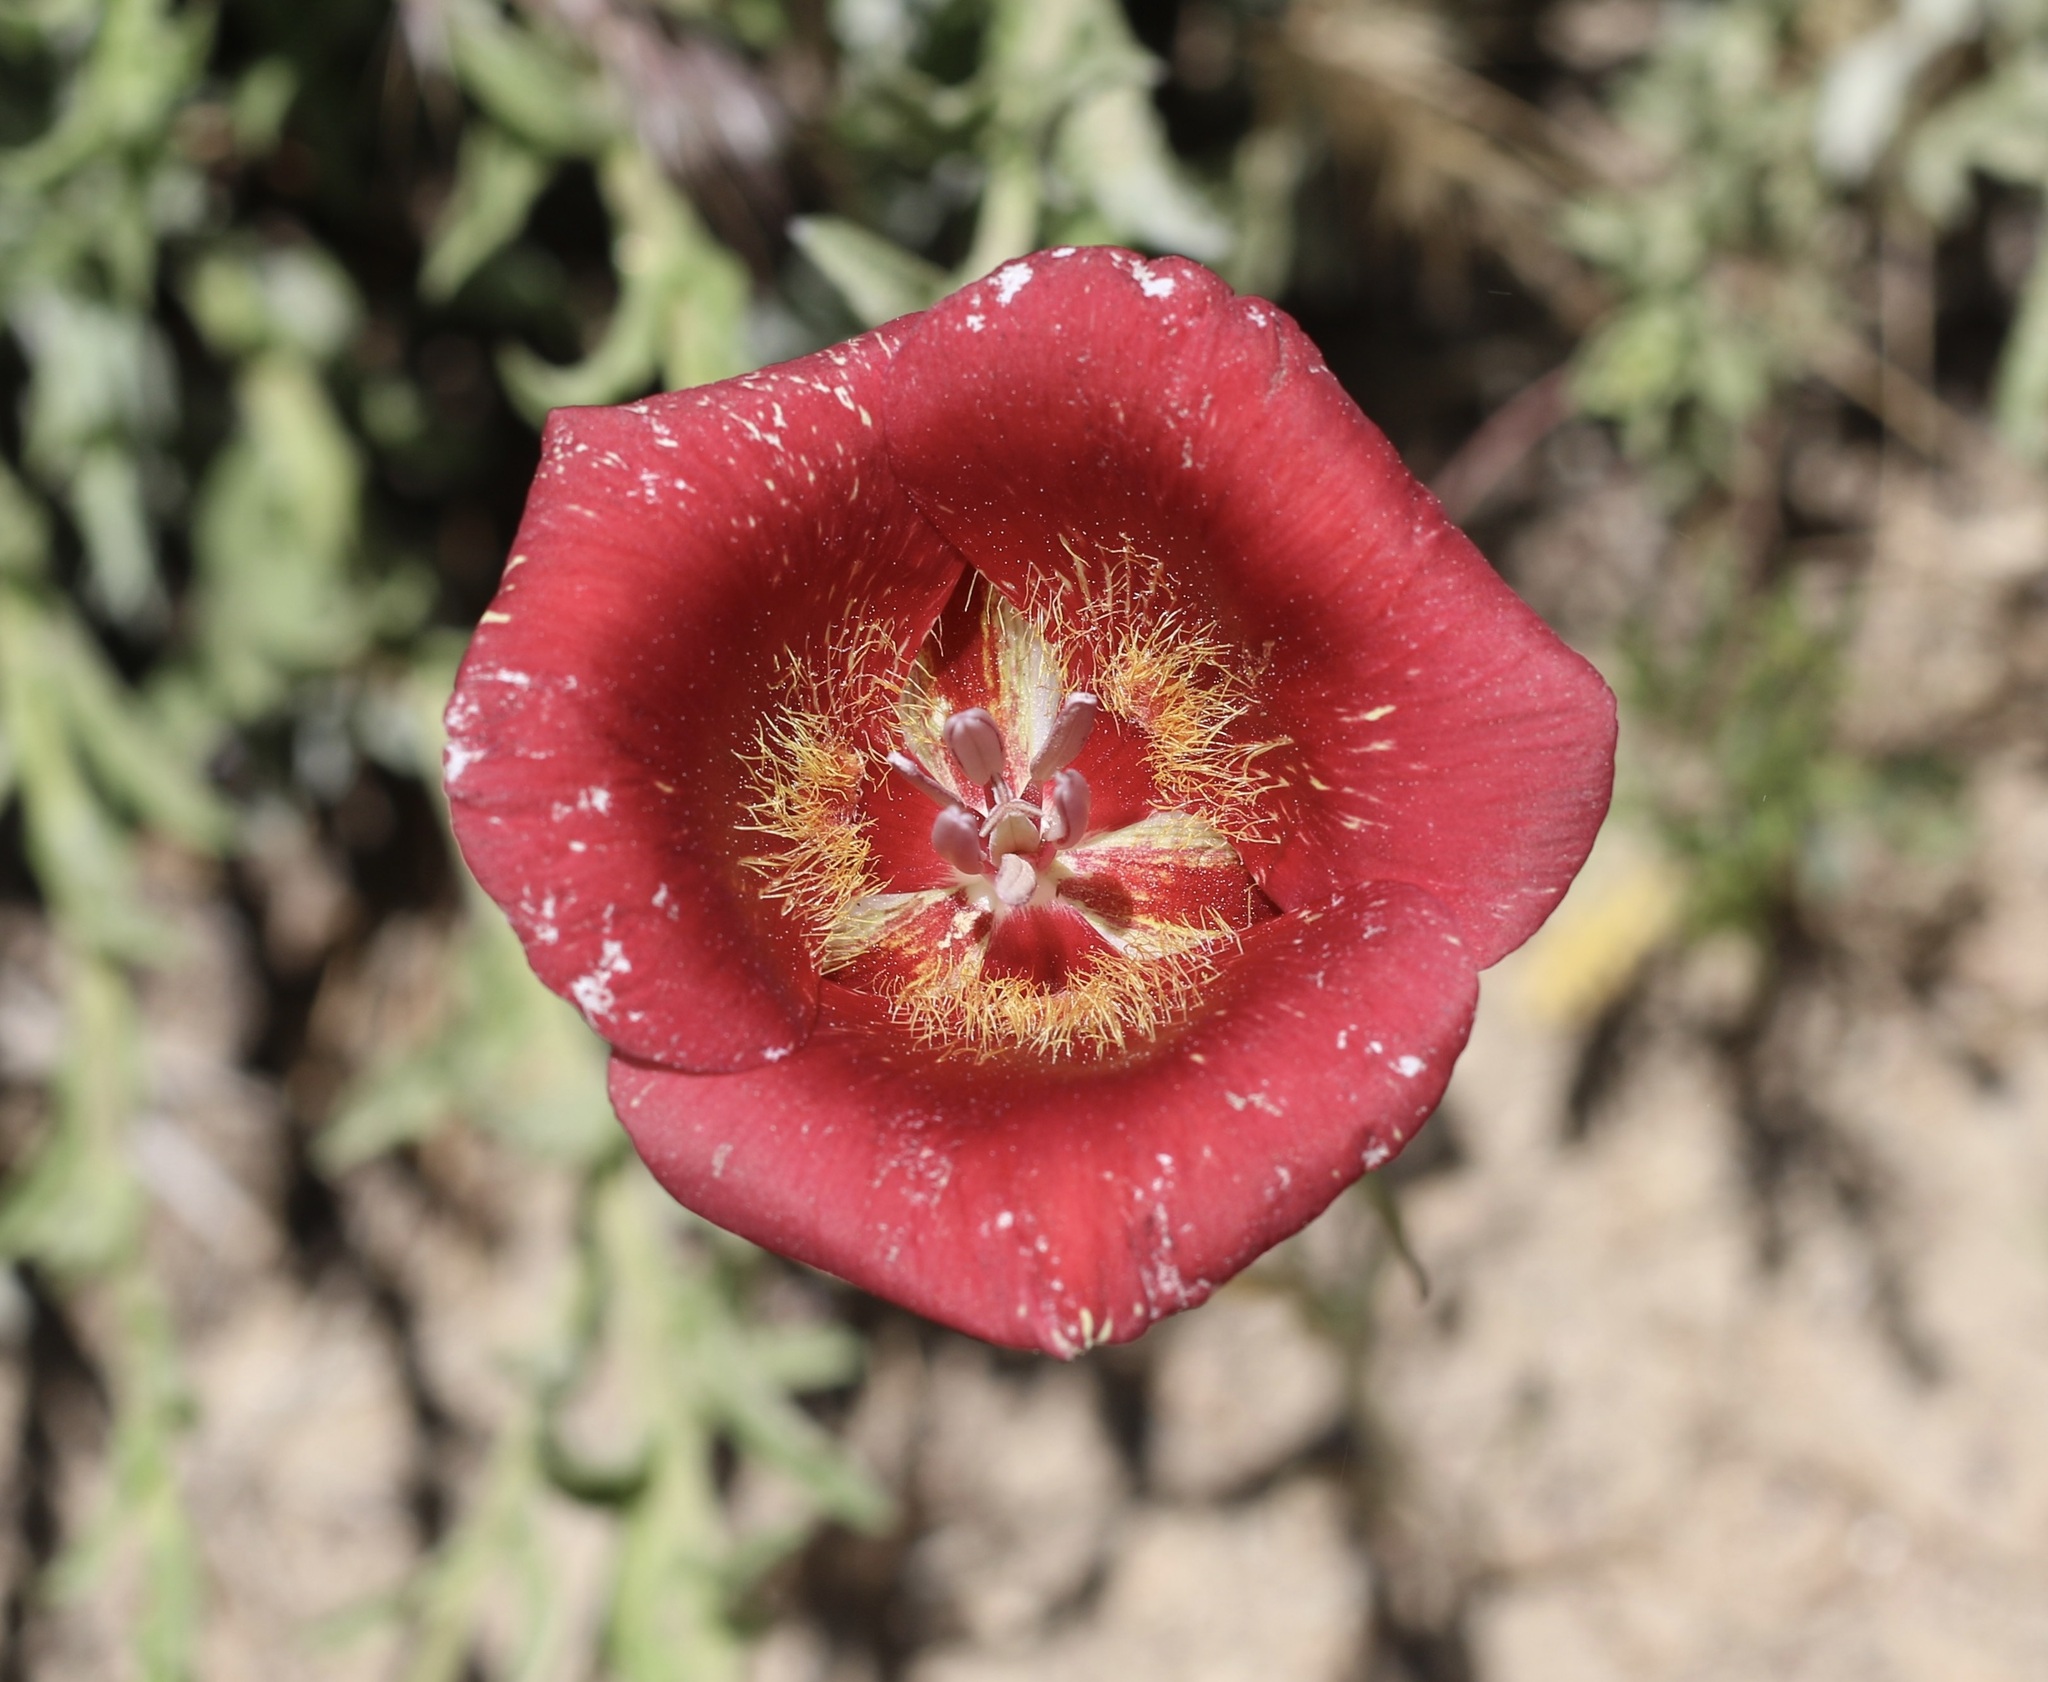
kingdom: Plantae
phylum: Tracheophyta
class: Liliopsida
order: Liliales
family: Liliaceae
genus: Calochortus
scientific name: Calochortus venustus
